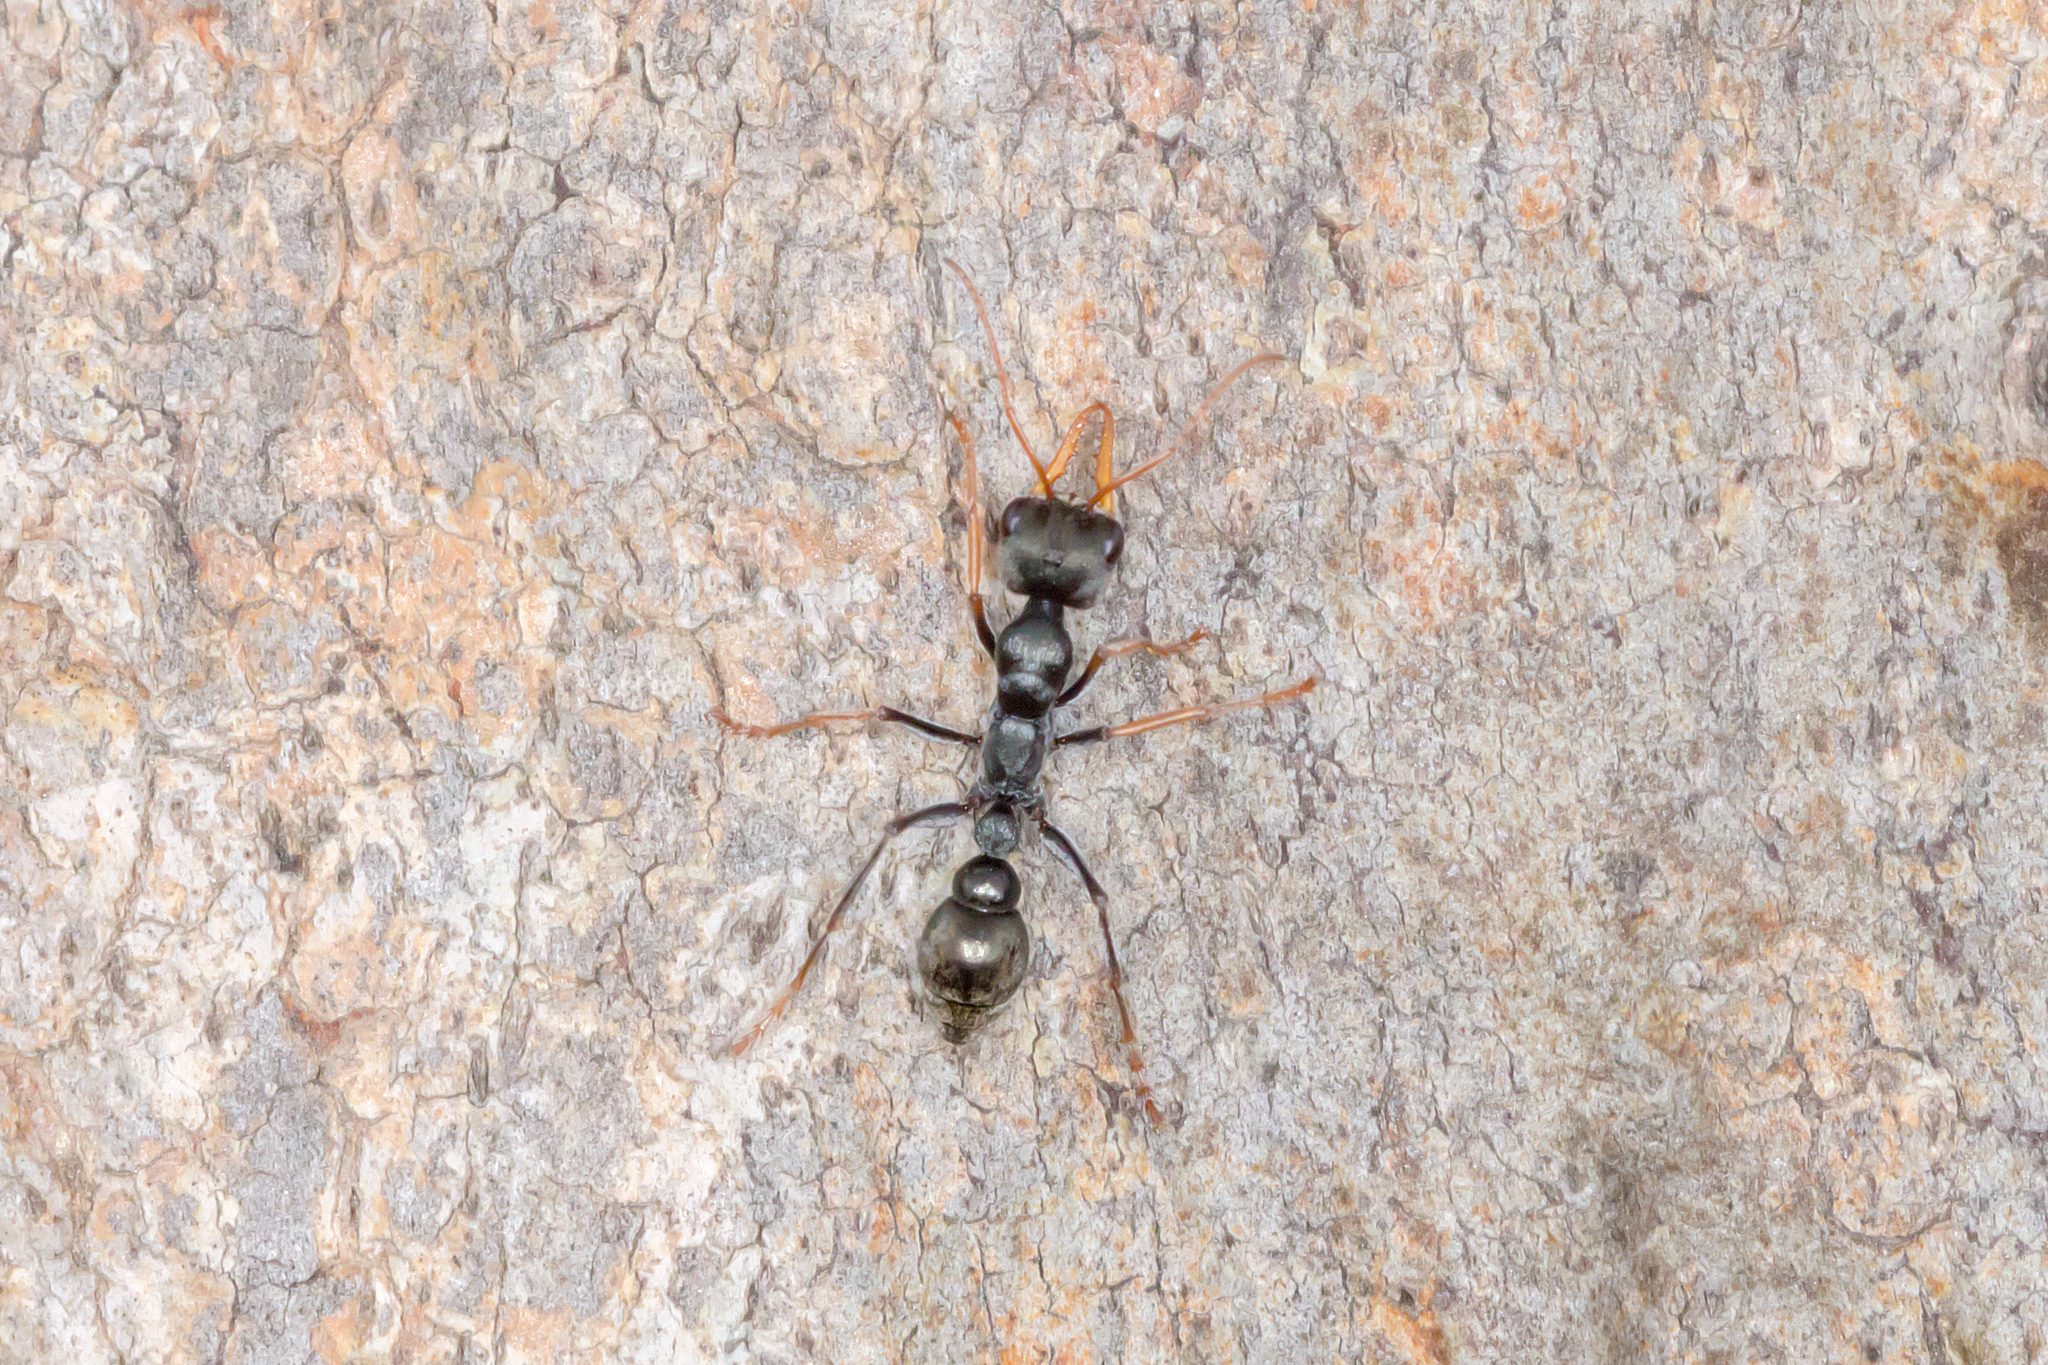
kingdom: Animalia
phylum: Arthropoda
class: Insecta
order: Hymenoptera
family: Formicidae
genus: Myrmecia
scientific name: Myrmecia pilosula
